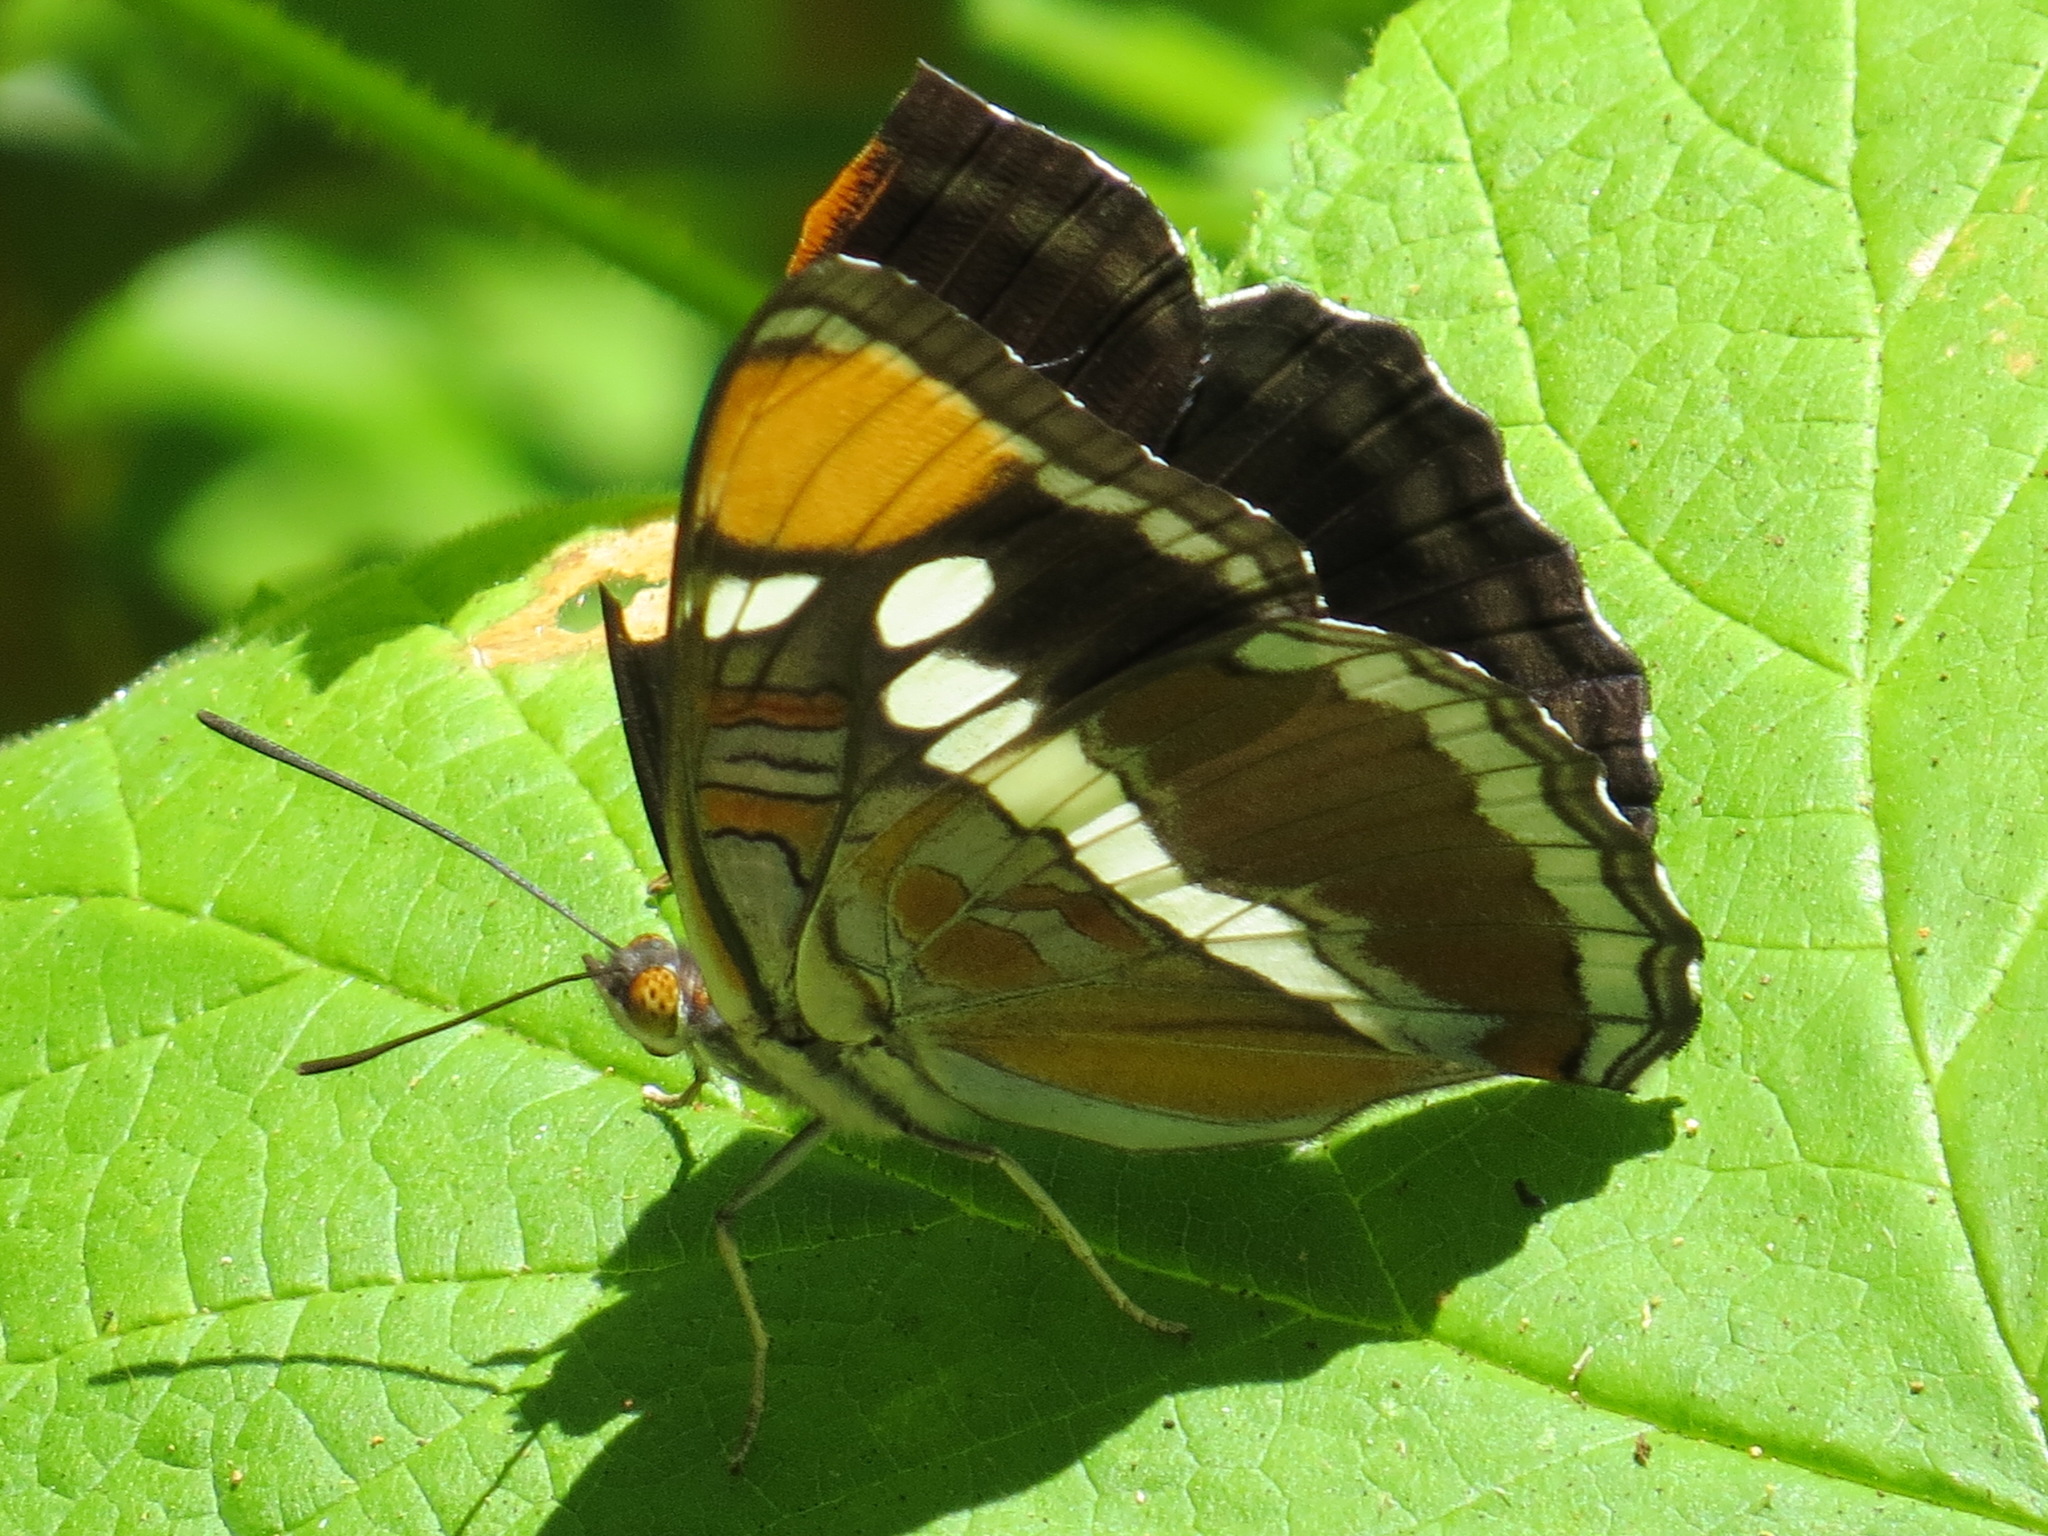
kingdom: Animalia
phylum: Arthropoda
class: Insecta
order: Lepidoptera
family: Nymphalidae
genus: Limenitis
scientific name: Limenitis bredowii
